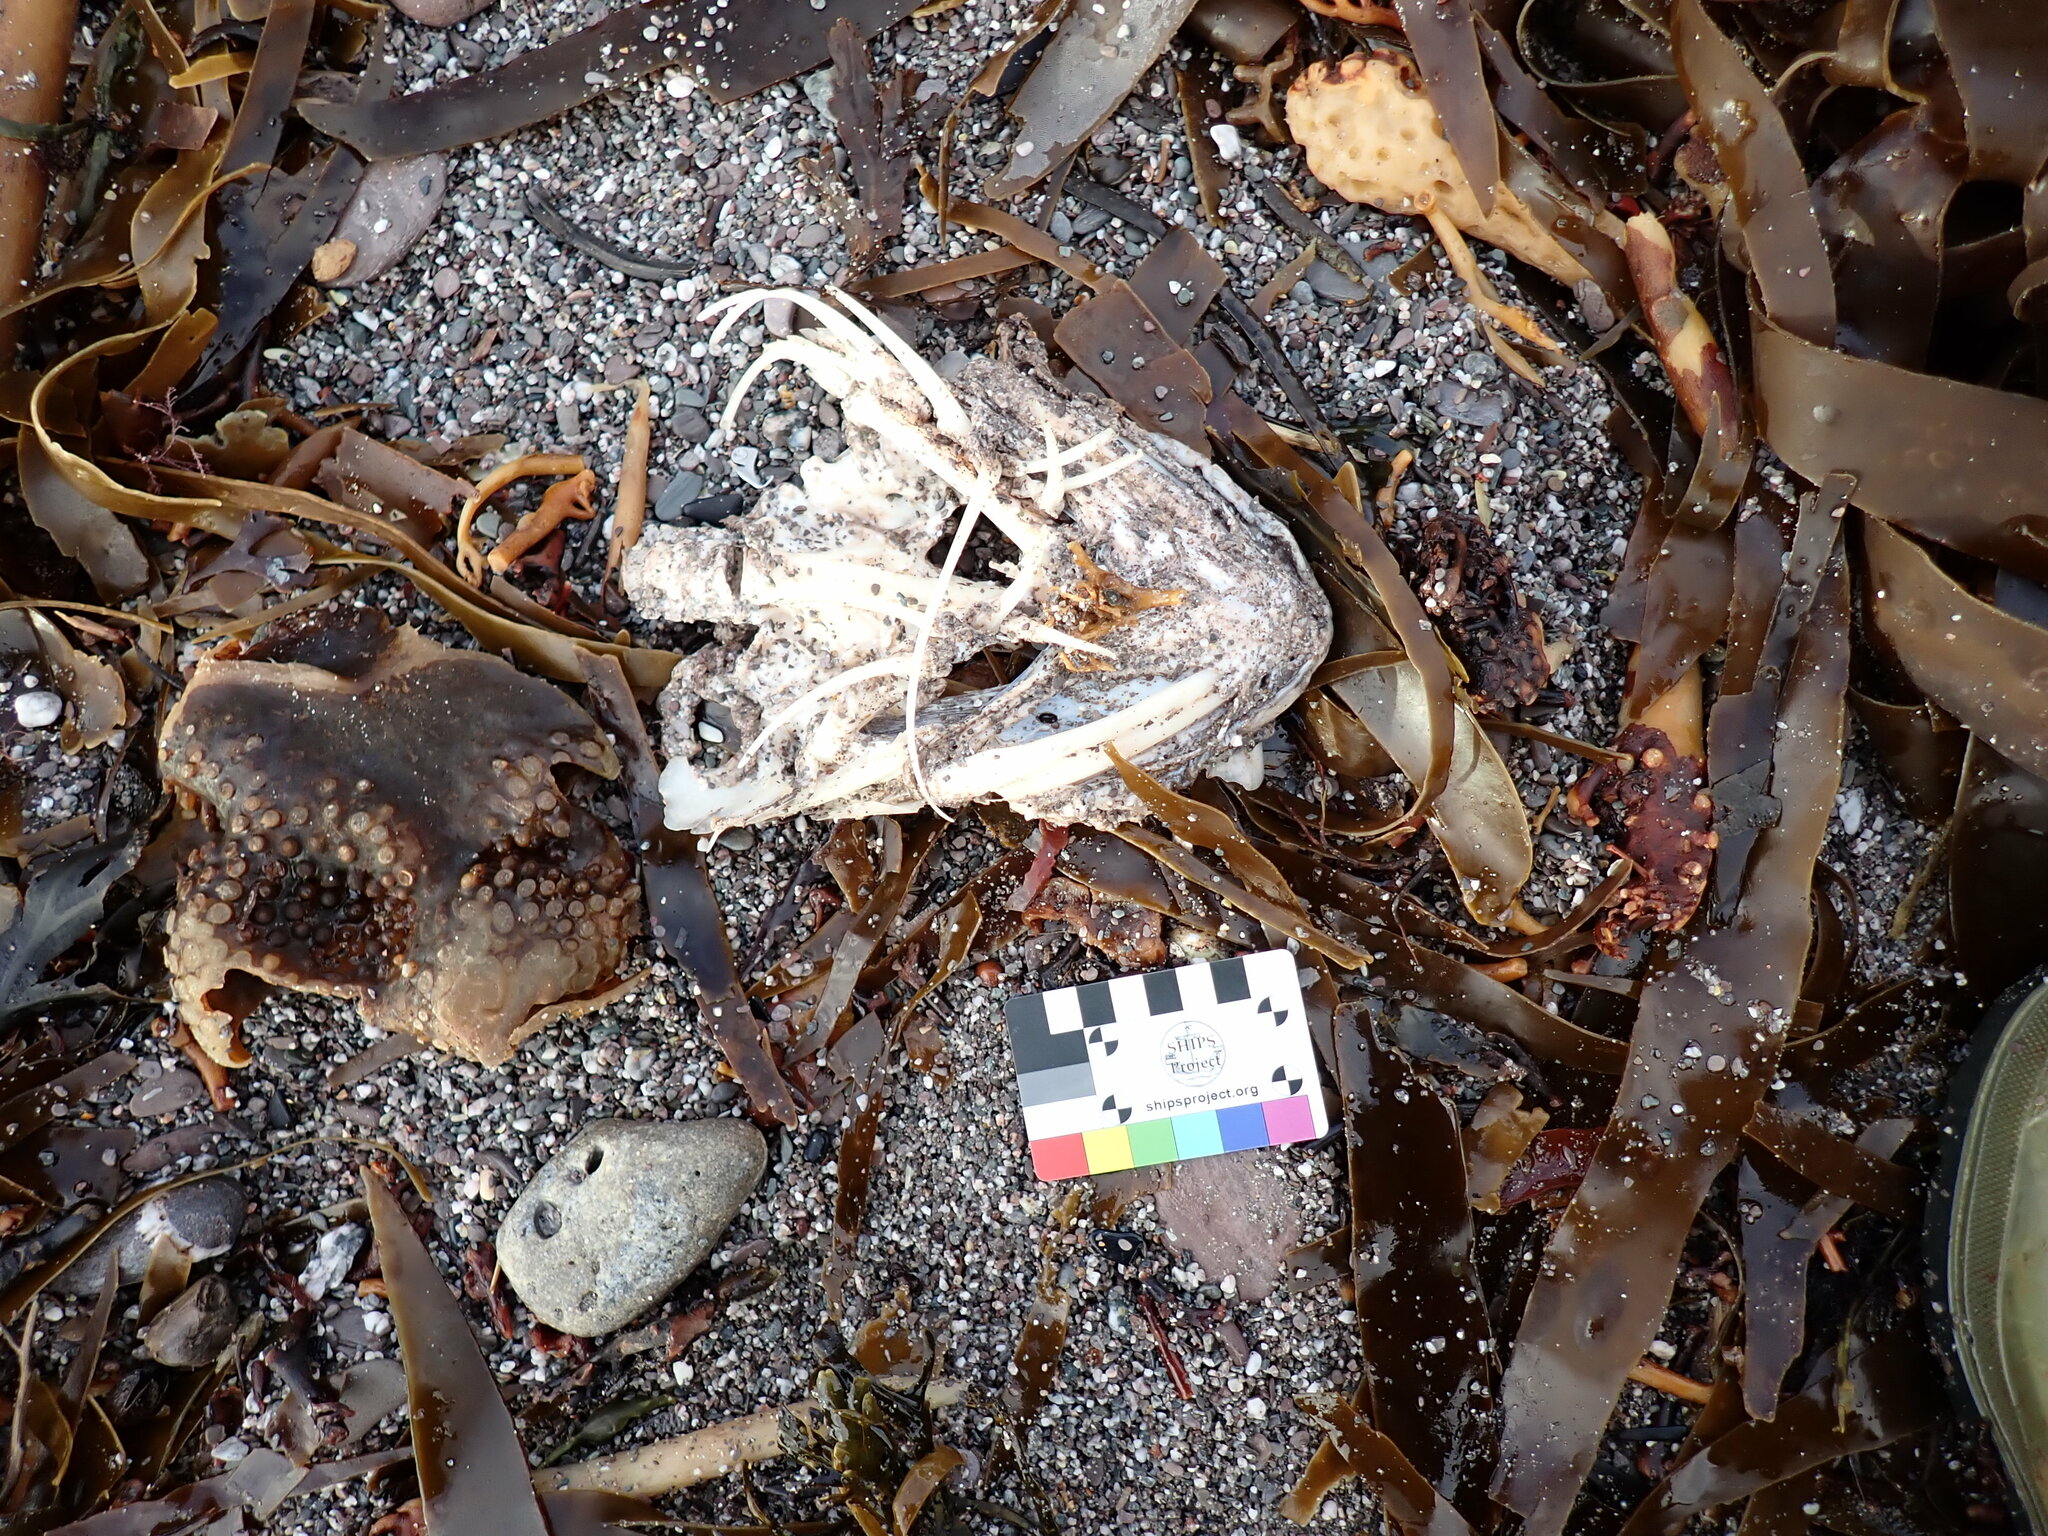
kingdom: Animalia
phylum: Chordata
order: Anguilliformes
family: Congridae
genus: Conger
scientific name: Conger conger
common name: Conger eel
